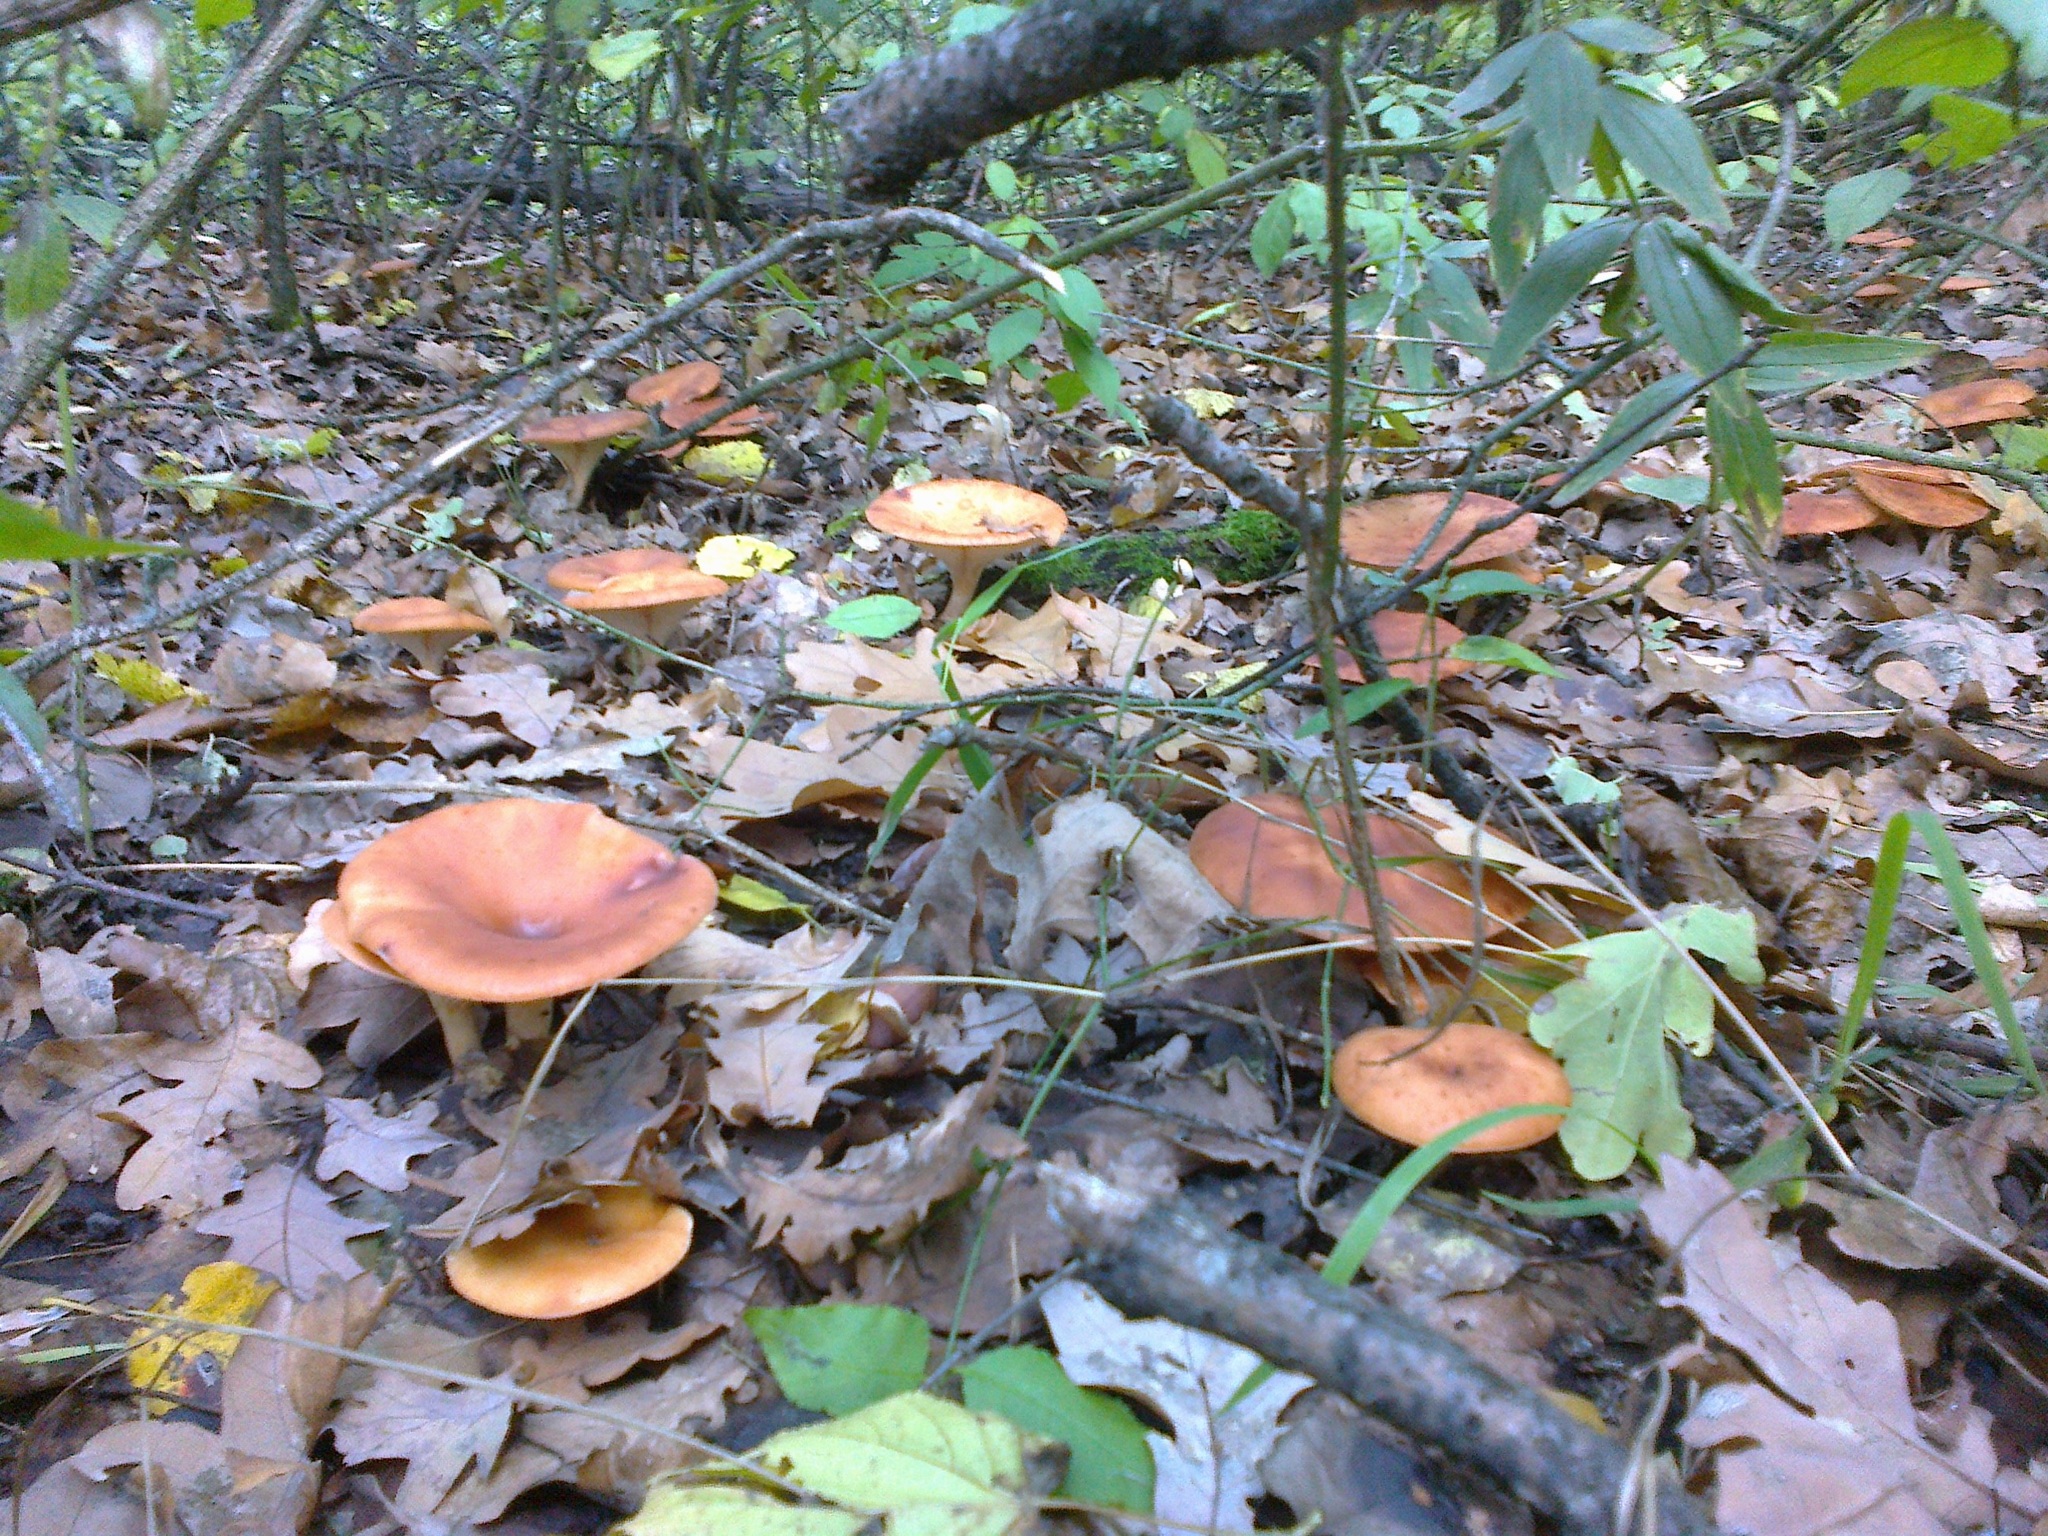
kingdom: Fungi
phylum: Basidiomycota
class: Agaricomycetes
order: Agaricales
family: Tricholomataceae
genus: Paralepista
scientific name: Paralepista flaccida
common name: Tawny funnel cap
